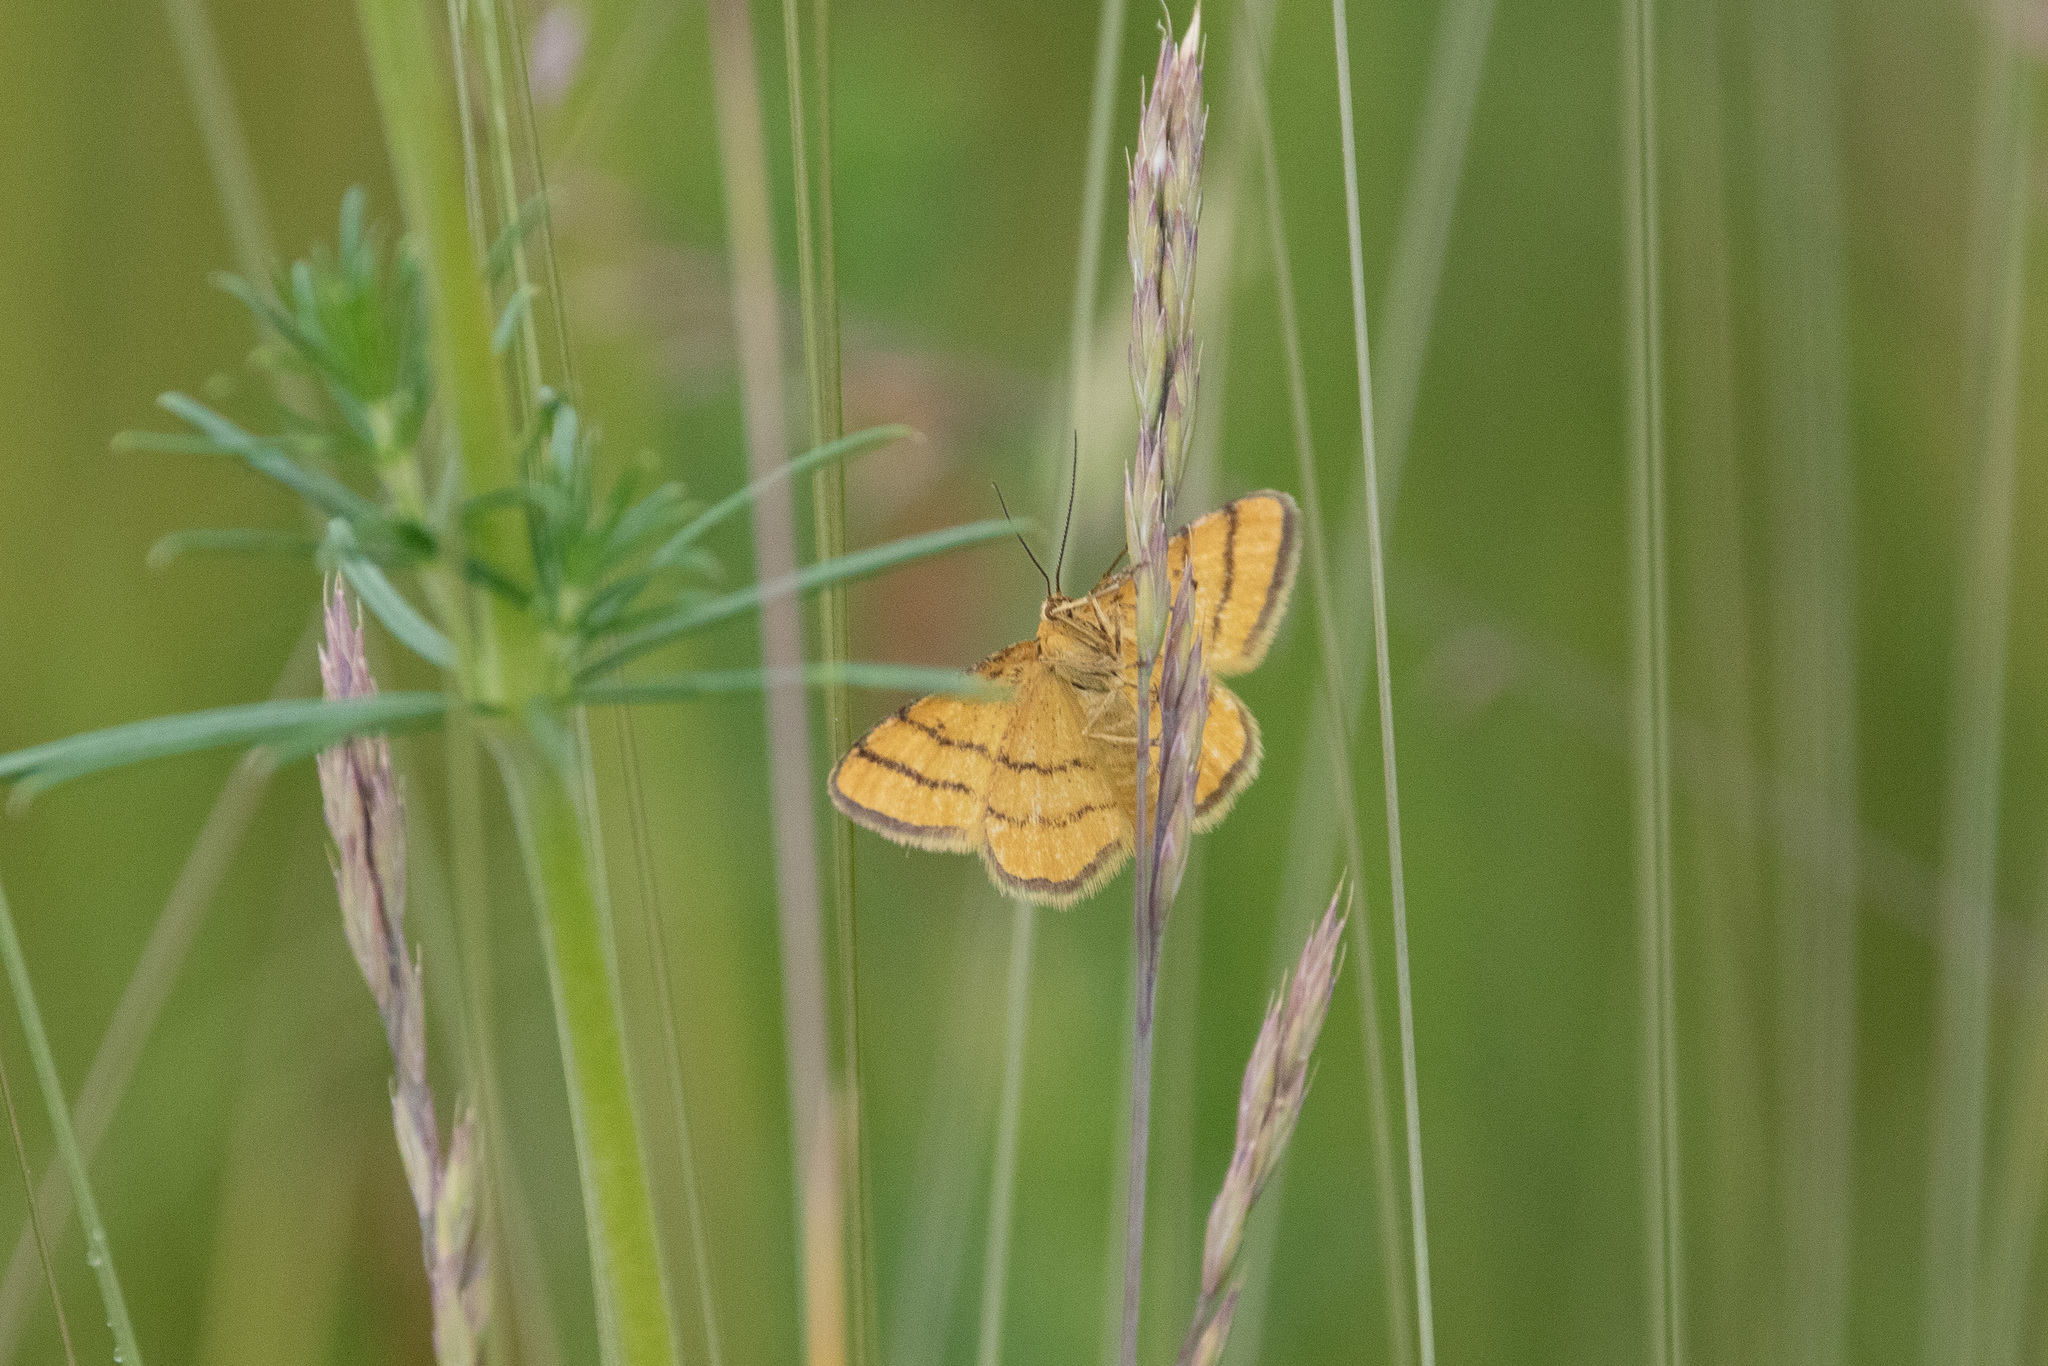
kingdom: Animalia
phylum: Arthropoda
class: Insecta
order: Lepidoptera
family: Geometridae
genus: Idaea
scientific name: Idaea aureolaria
